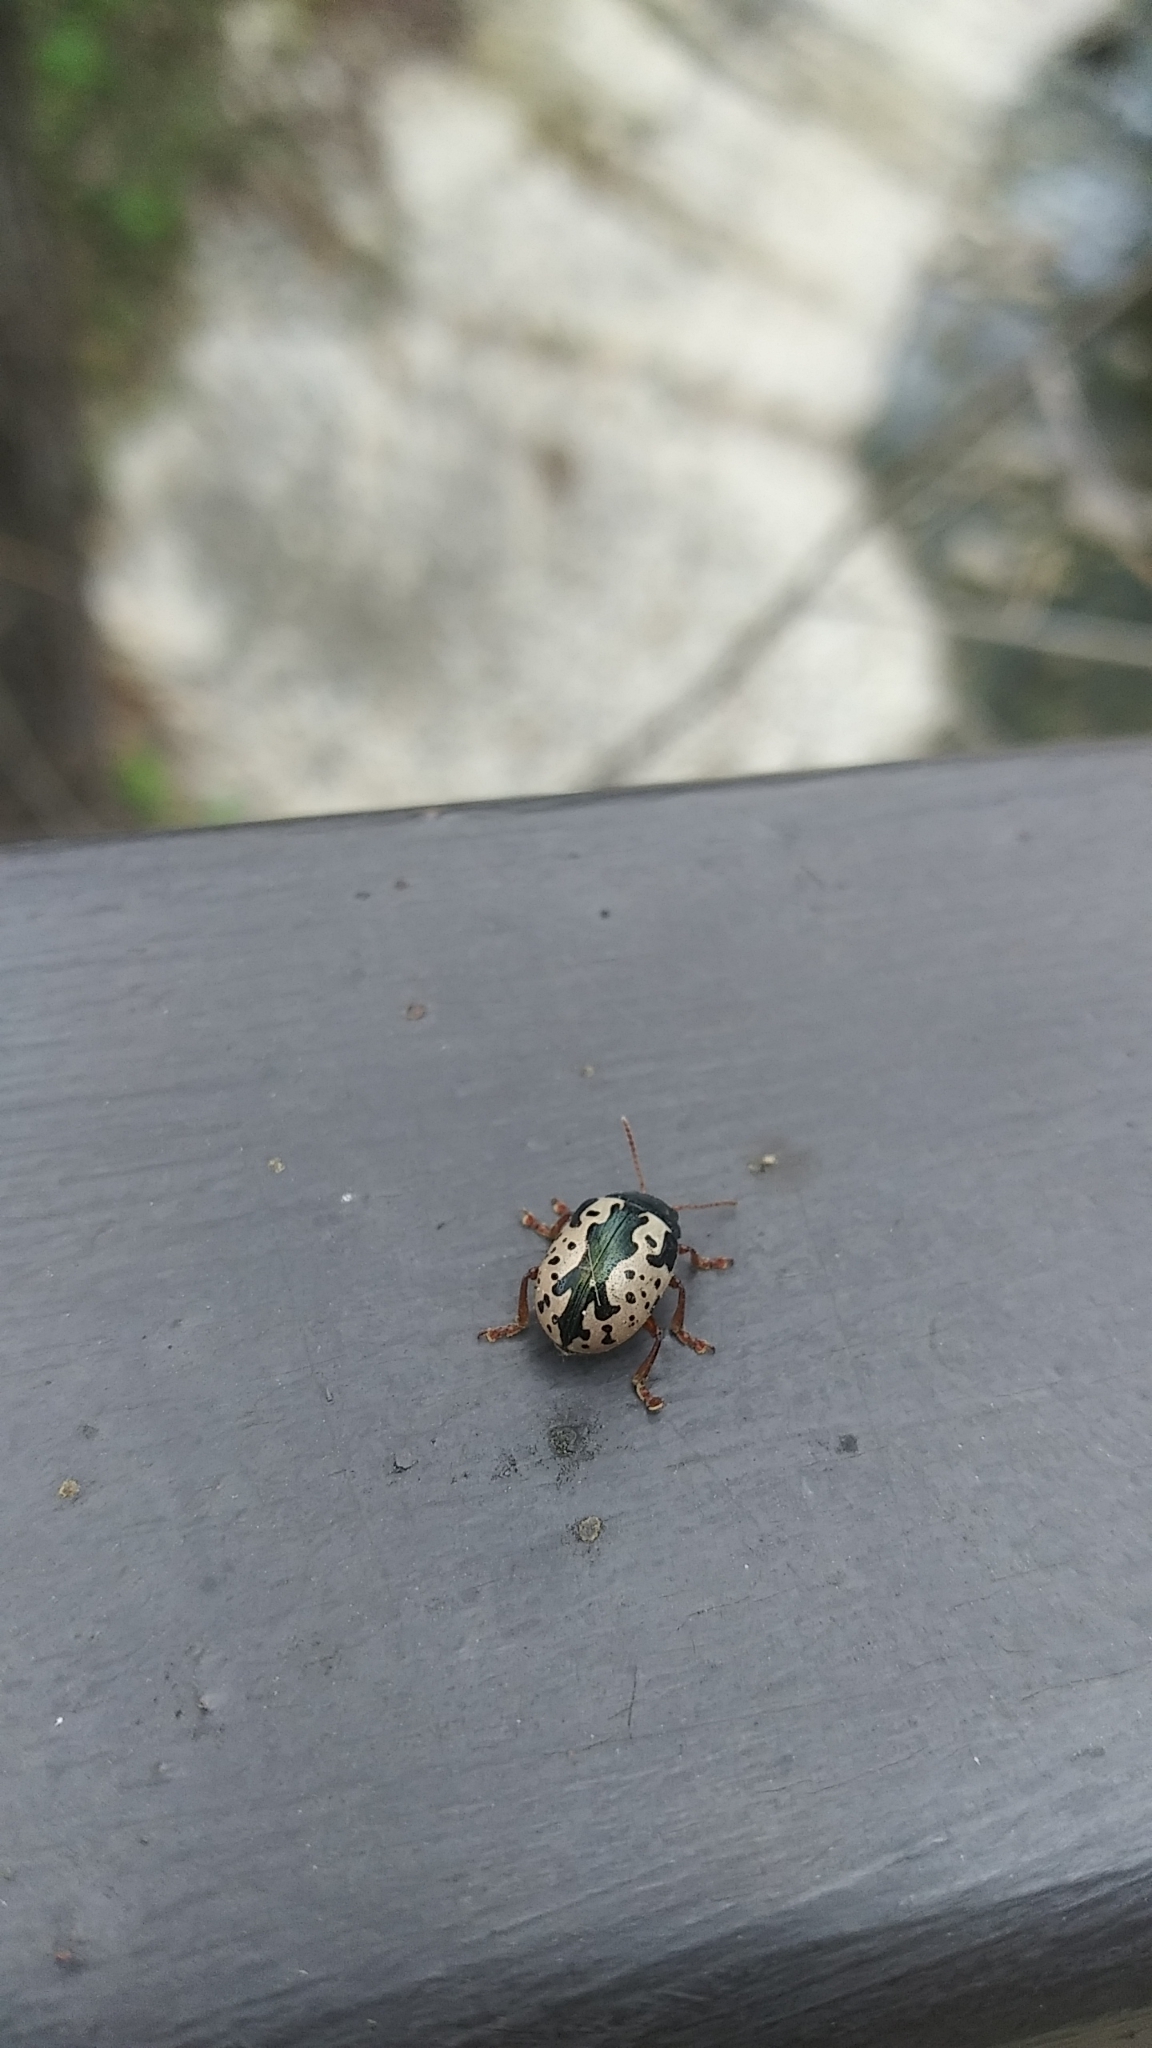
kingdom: Animalia
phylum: Arthropoda
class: Insecta
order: Coleoptera
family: Chrysomelidae
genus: Calligrapha
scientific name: Calligrapha scalaris
